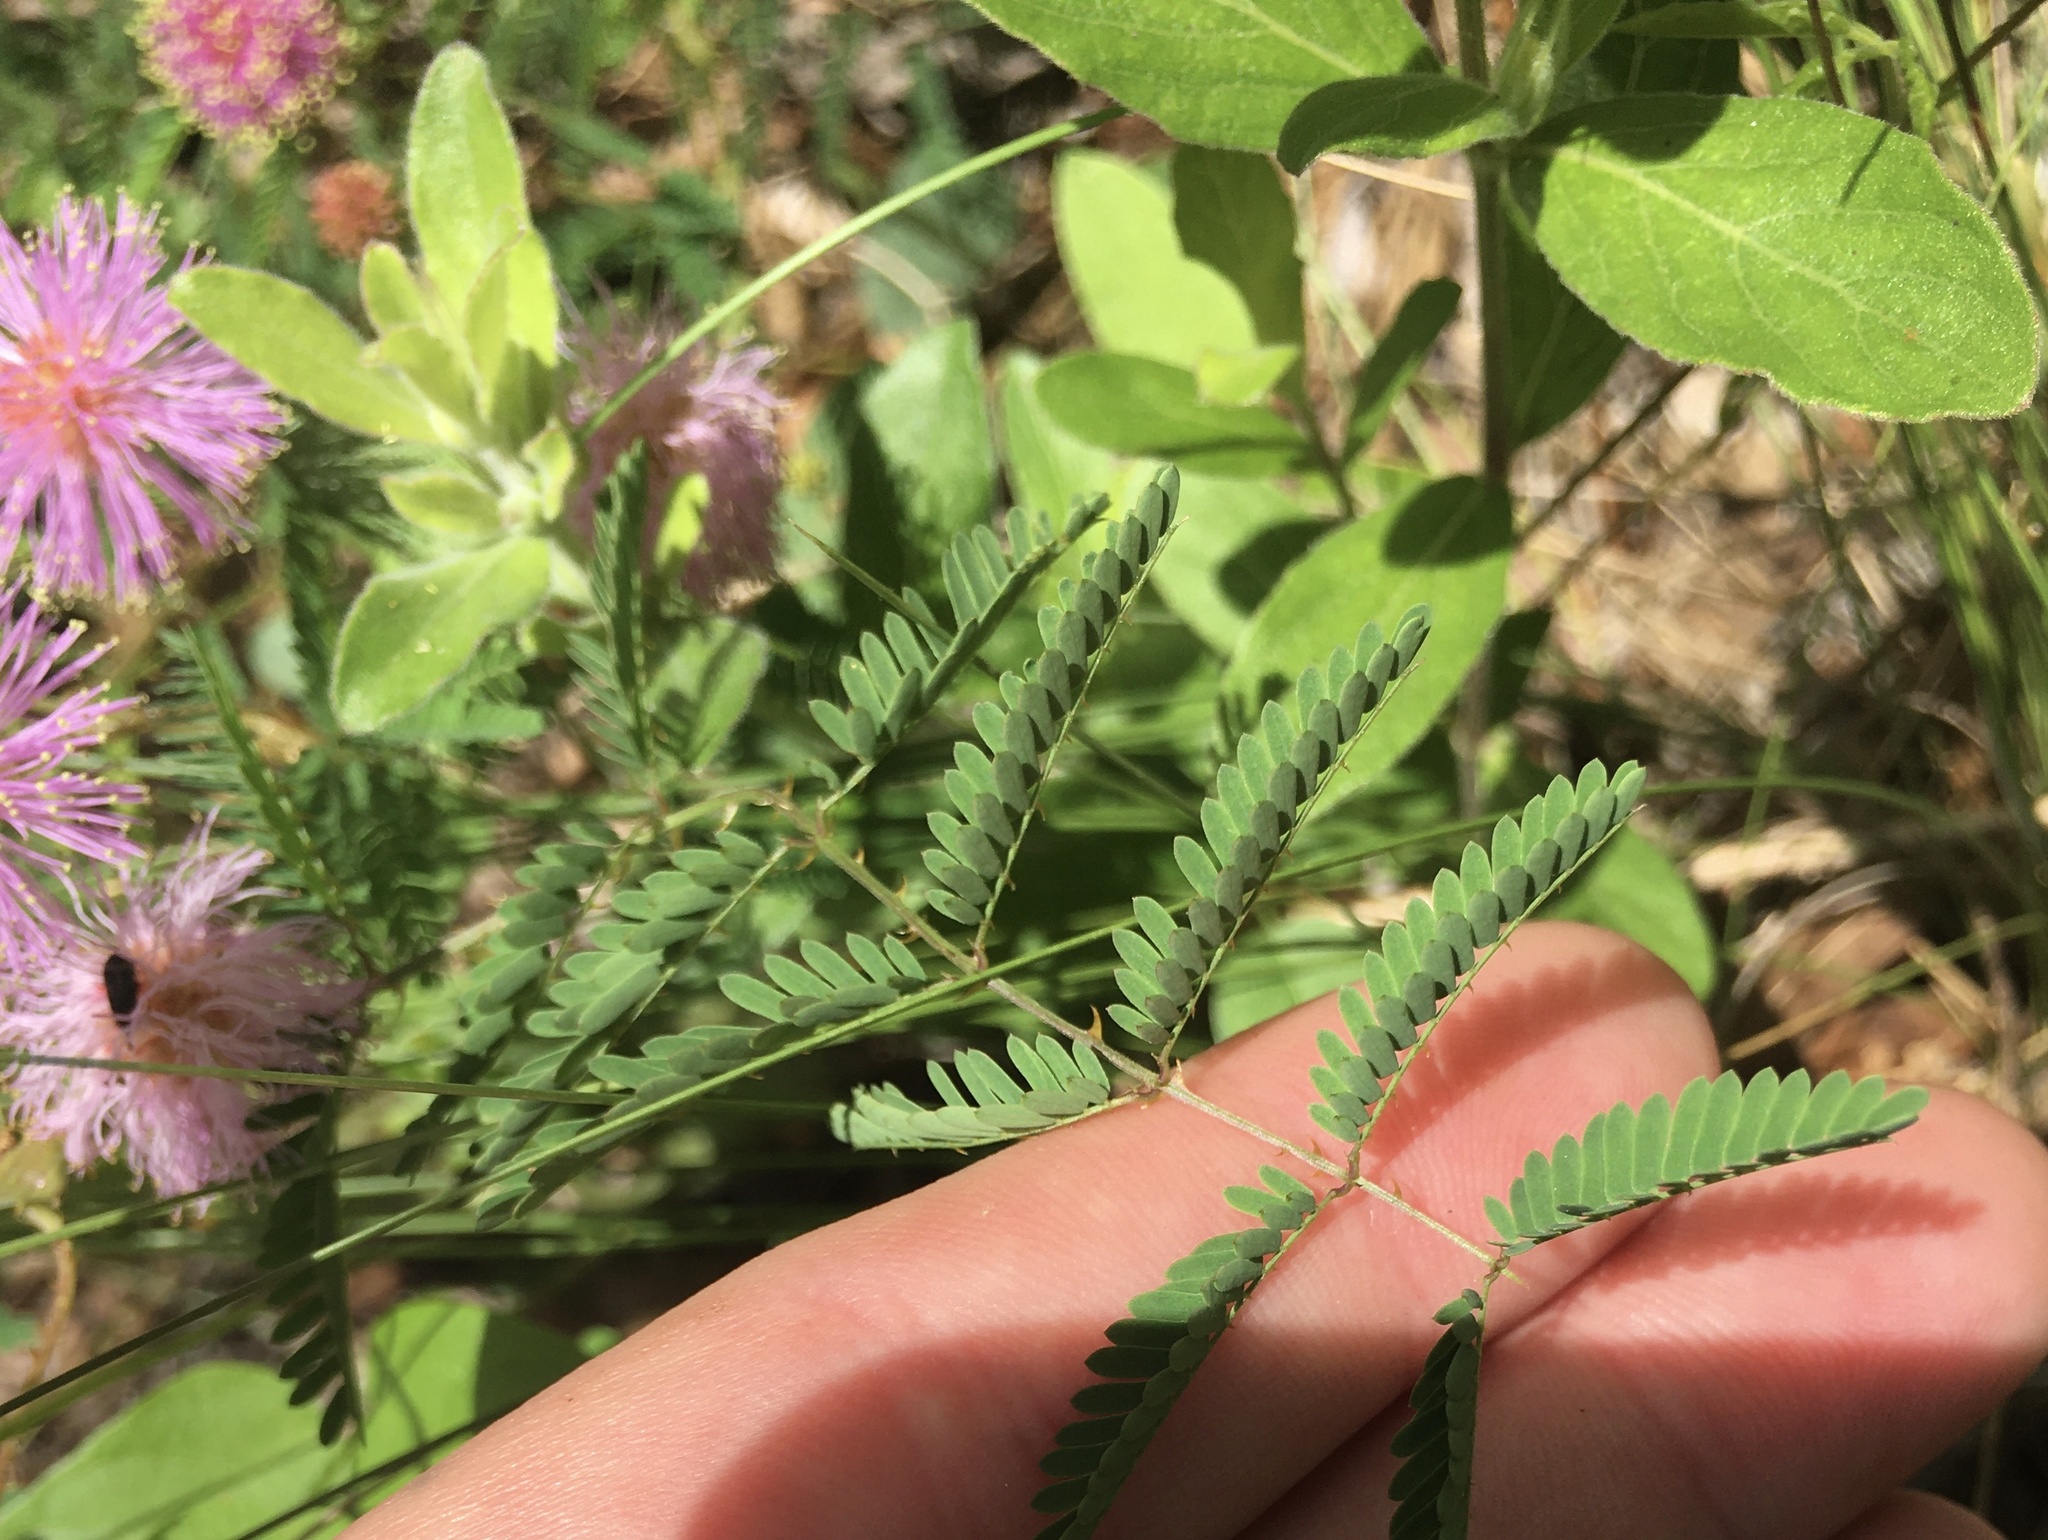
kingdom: Plantae
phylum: Tracheophyta
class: Magnoliopsida
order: Fabales
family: Fabaceae
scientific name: Fabaceae
